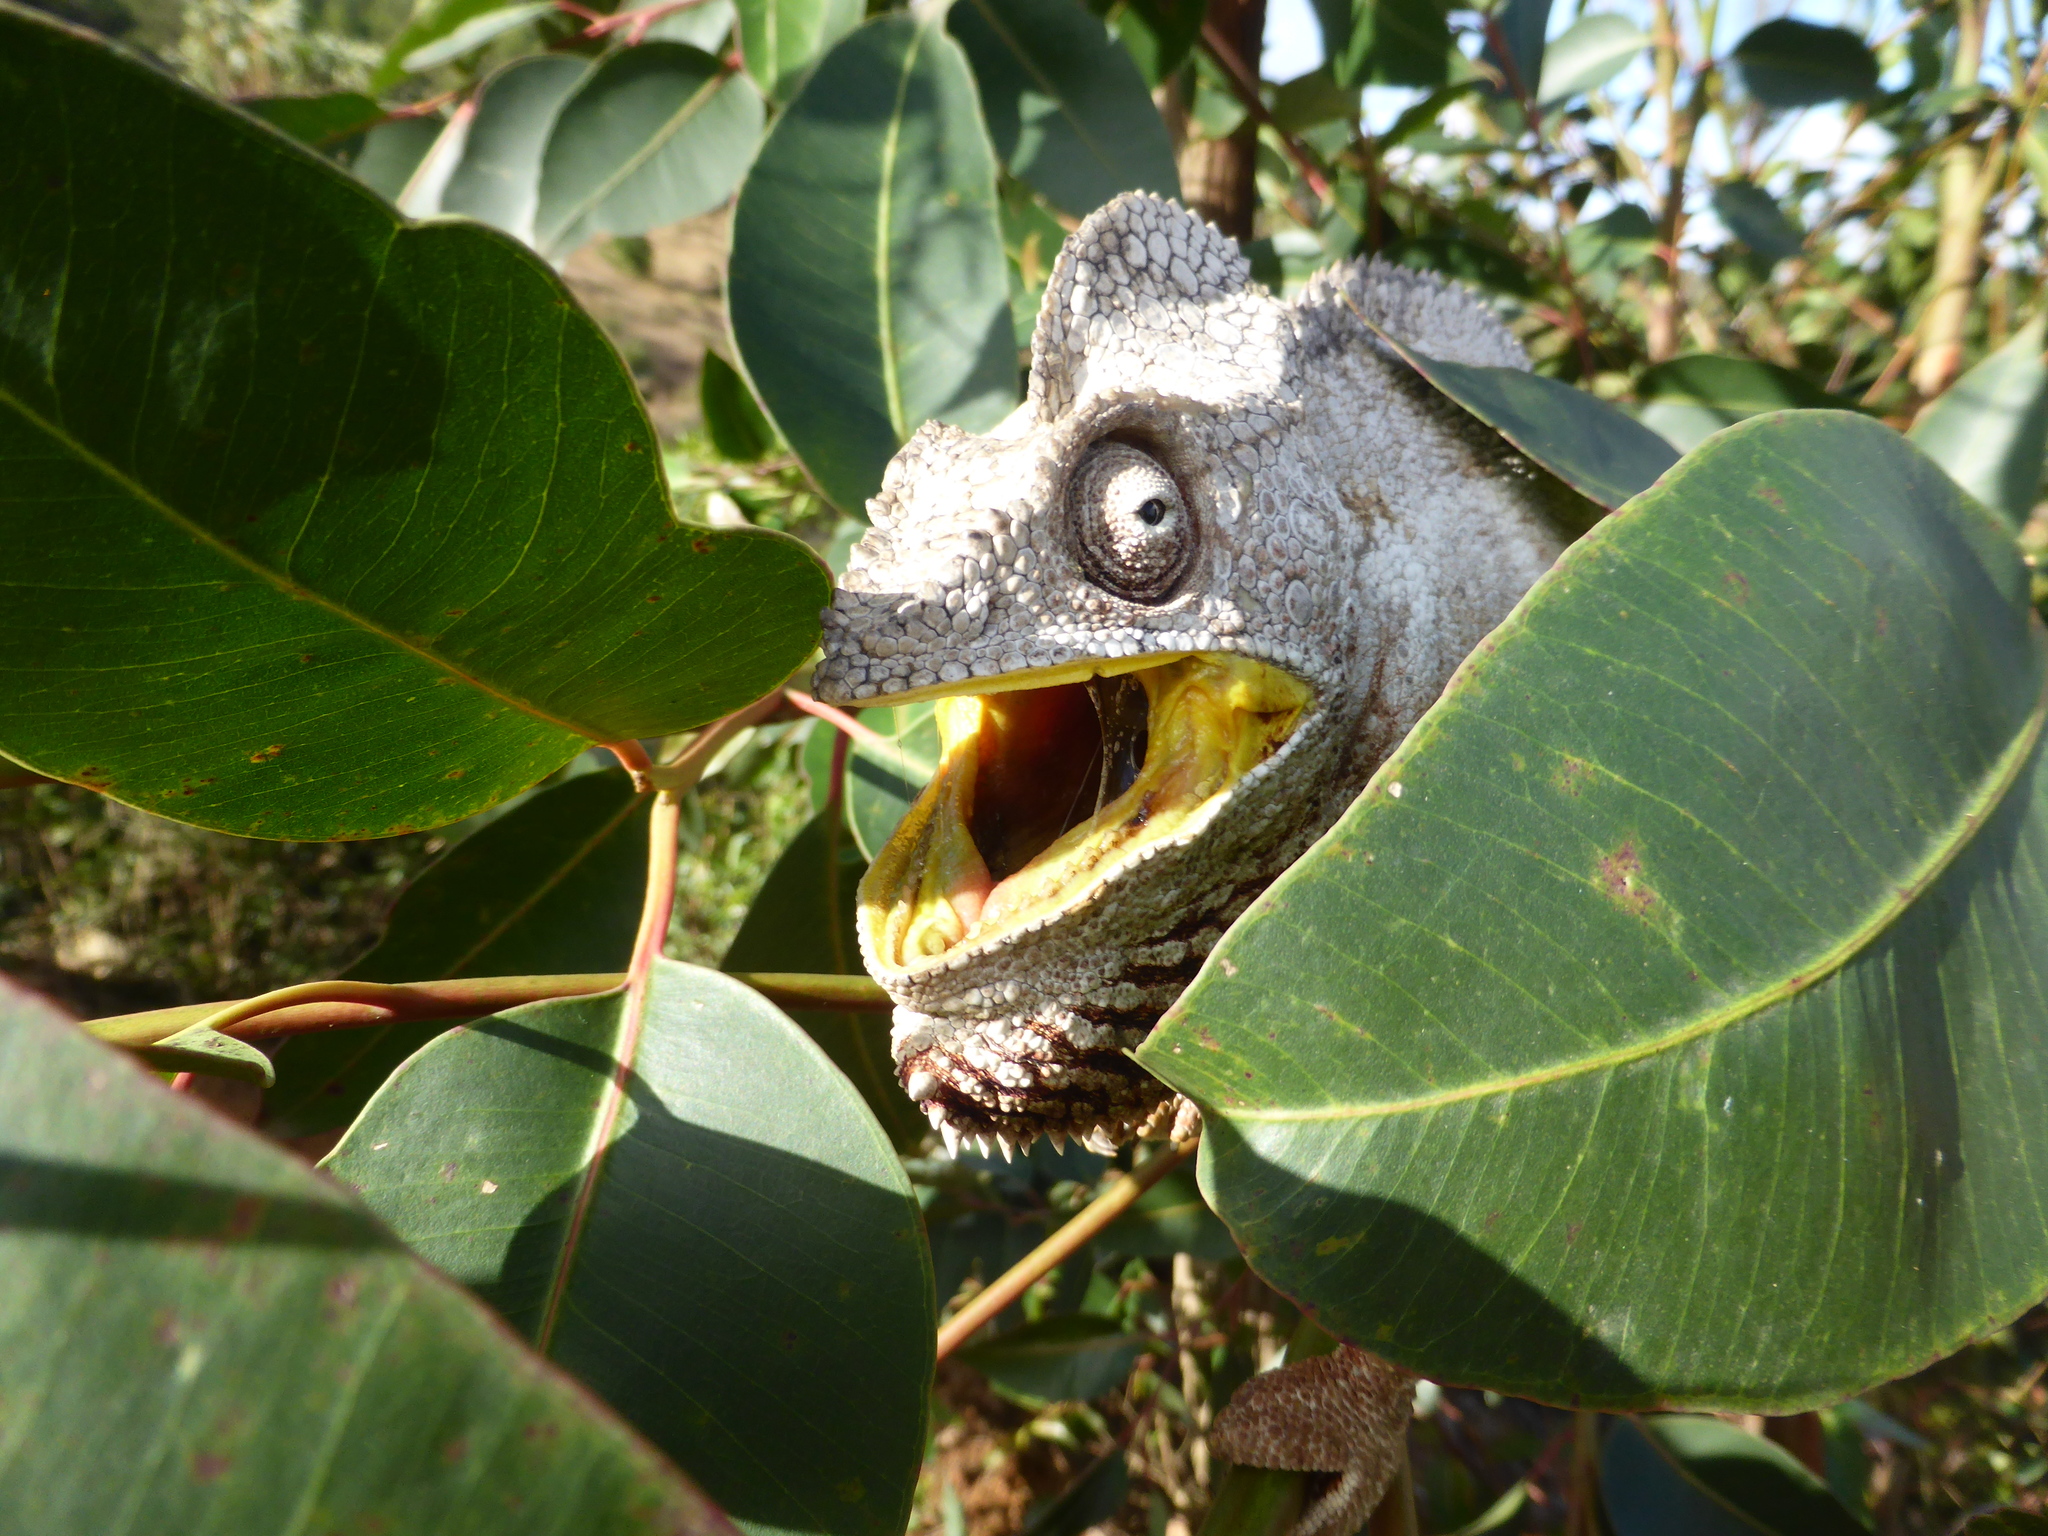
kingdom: Animalia
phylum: Chordata
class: Squamata
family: Chamaeleonidae
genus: Furcifer
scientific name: Furcifer oustaleti
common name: Oustalet's chameleon
